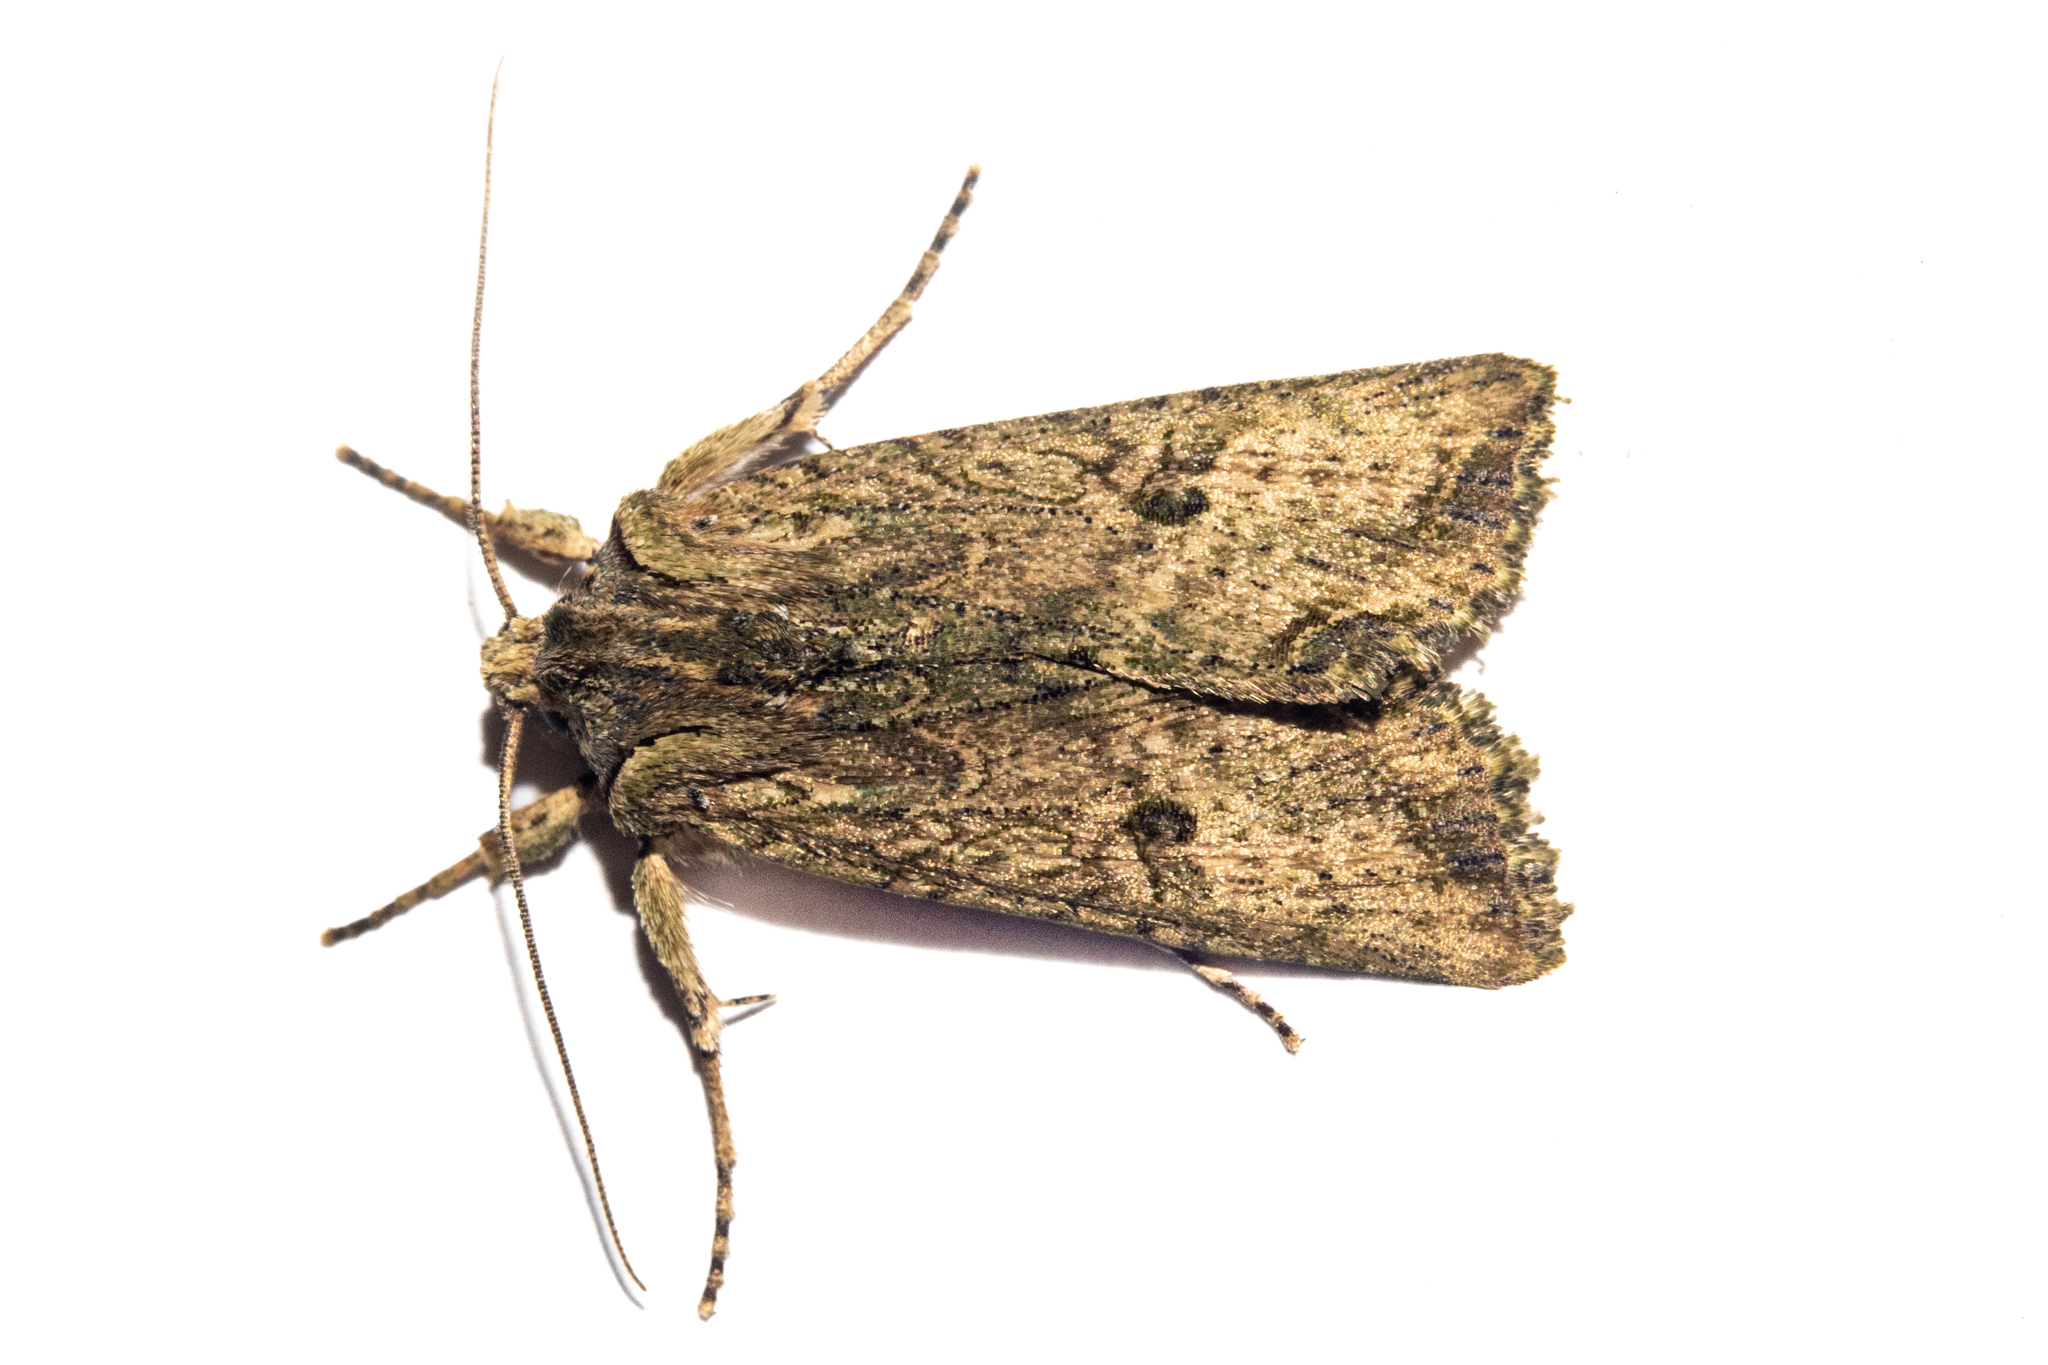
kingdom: Animalia
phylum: Arthropoda
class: Insecta
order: Lepidoptera
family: Noctuidae
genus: Meterana
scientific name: Meterana coeleno
